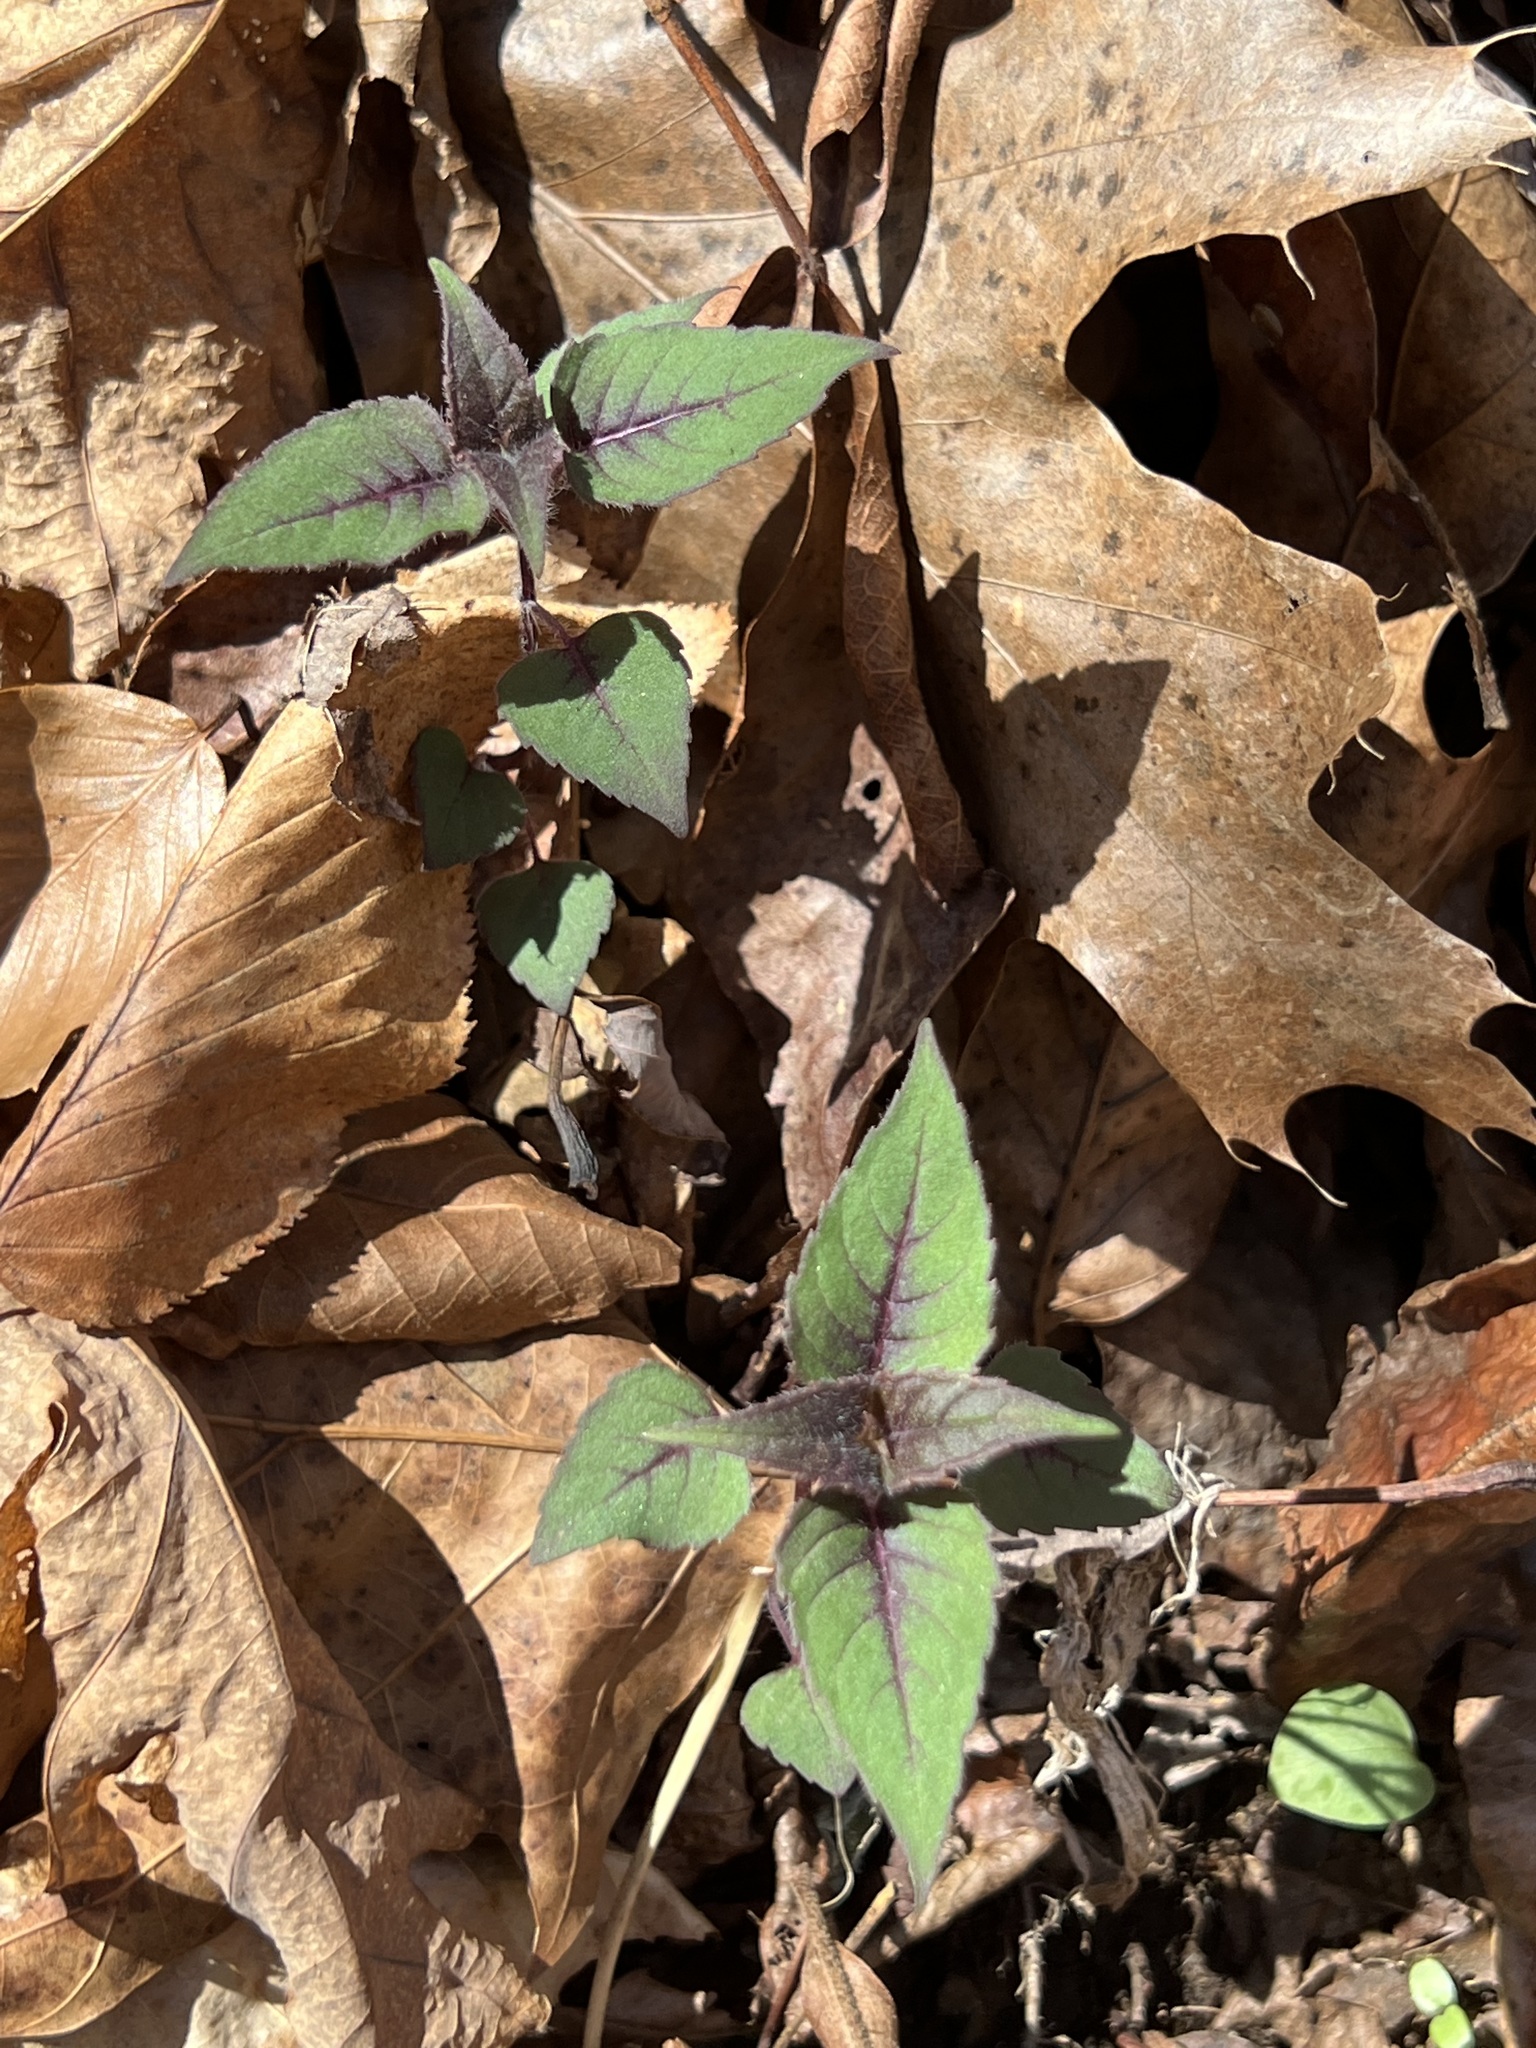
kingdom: Plantae
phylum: Tracheophyta
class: Magnoliopsida
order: Lamiales
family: Lamiaceae
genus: Monarda
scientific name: Monarda fistulosa
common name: Purple beebalm
